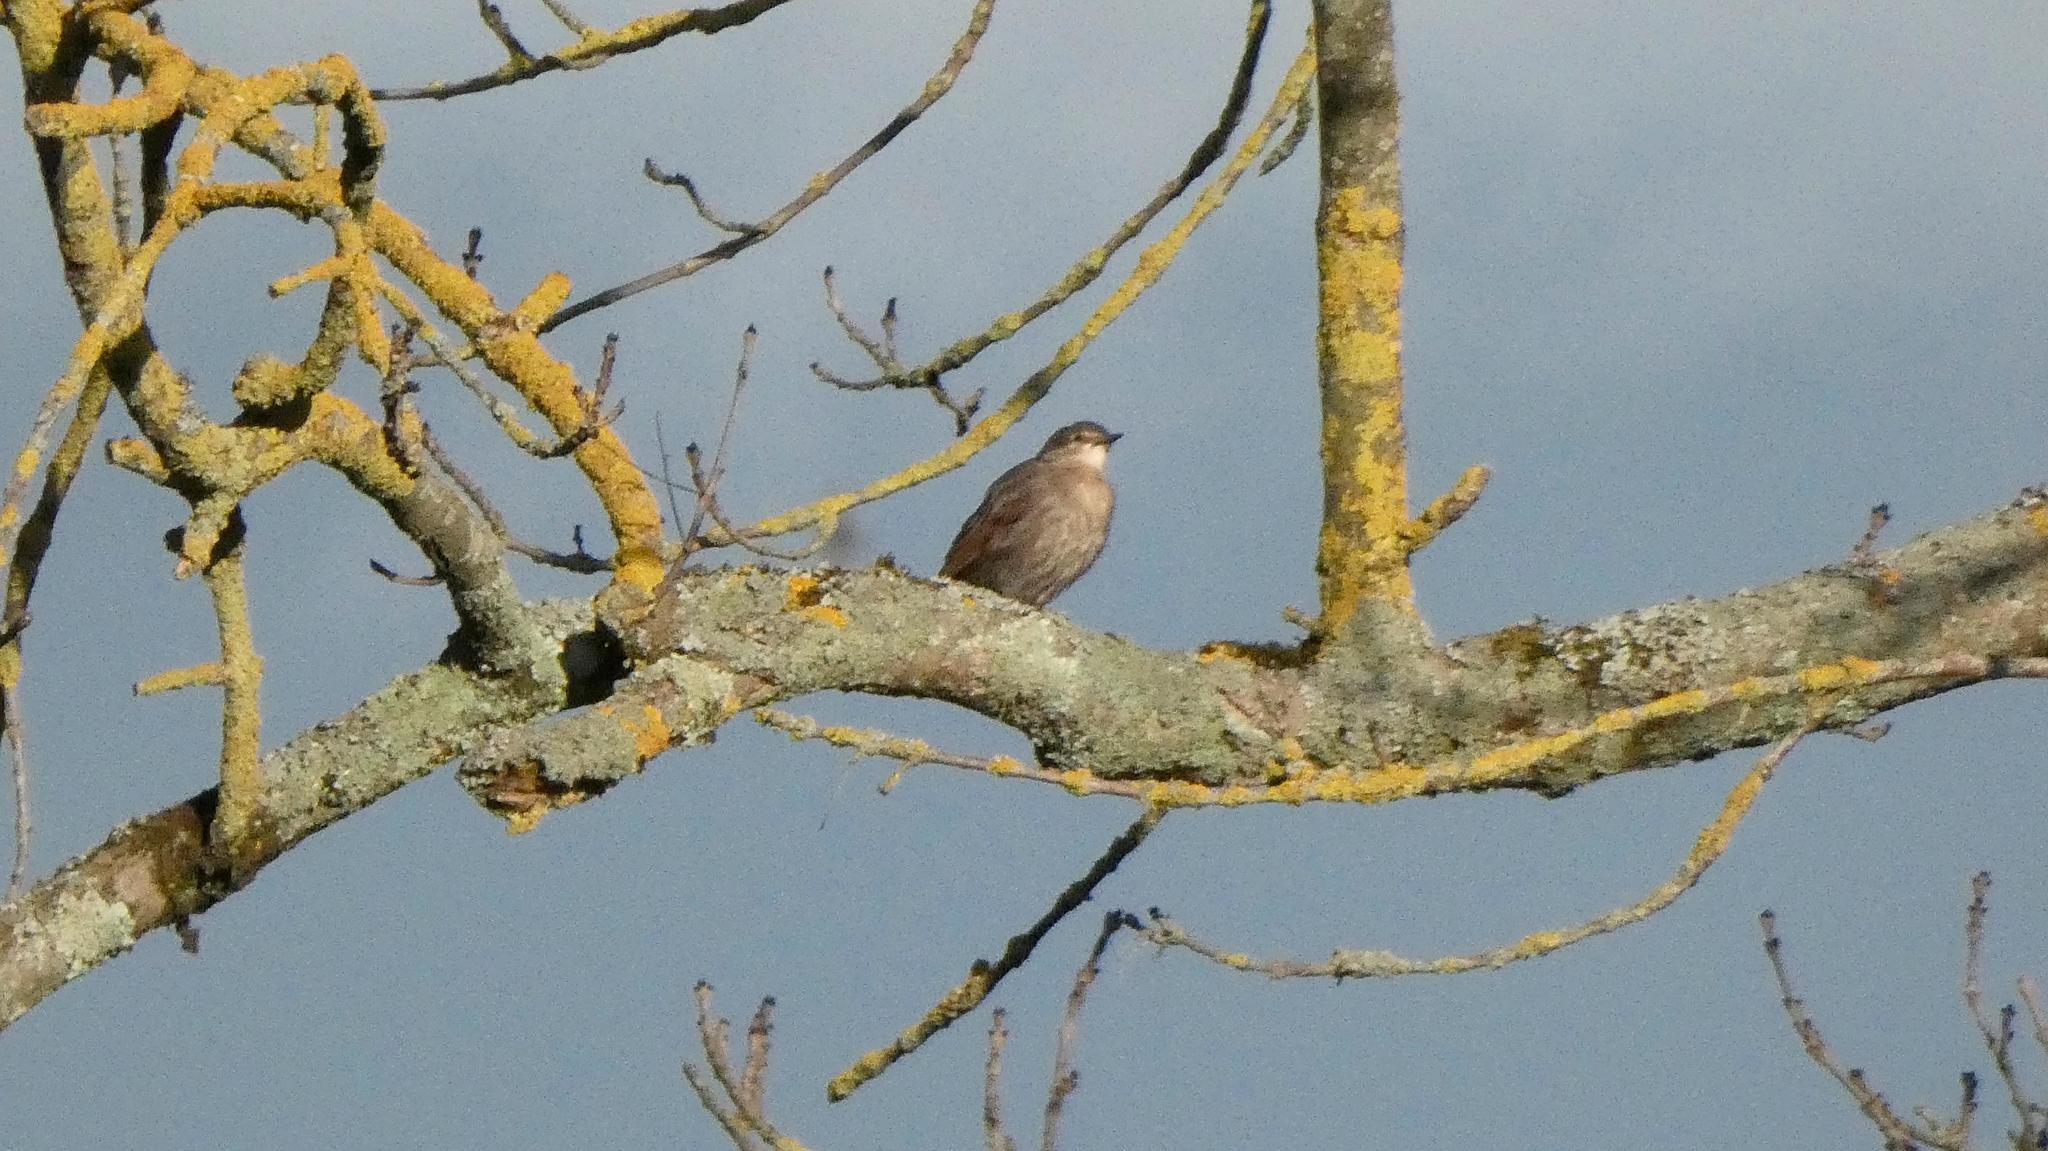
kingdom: Animalia
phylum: Chordata
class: Aves
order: Passeriformes
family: Sturnidae
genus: Sturnus
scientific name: Sturnus vulgaris
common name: Common starling
